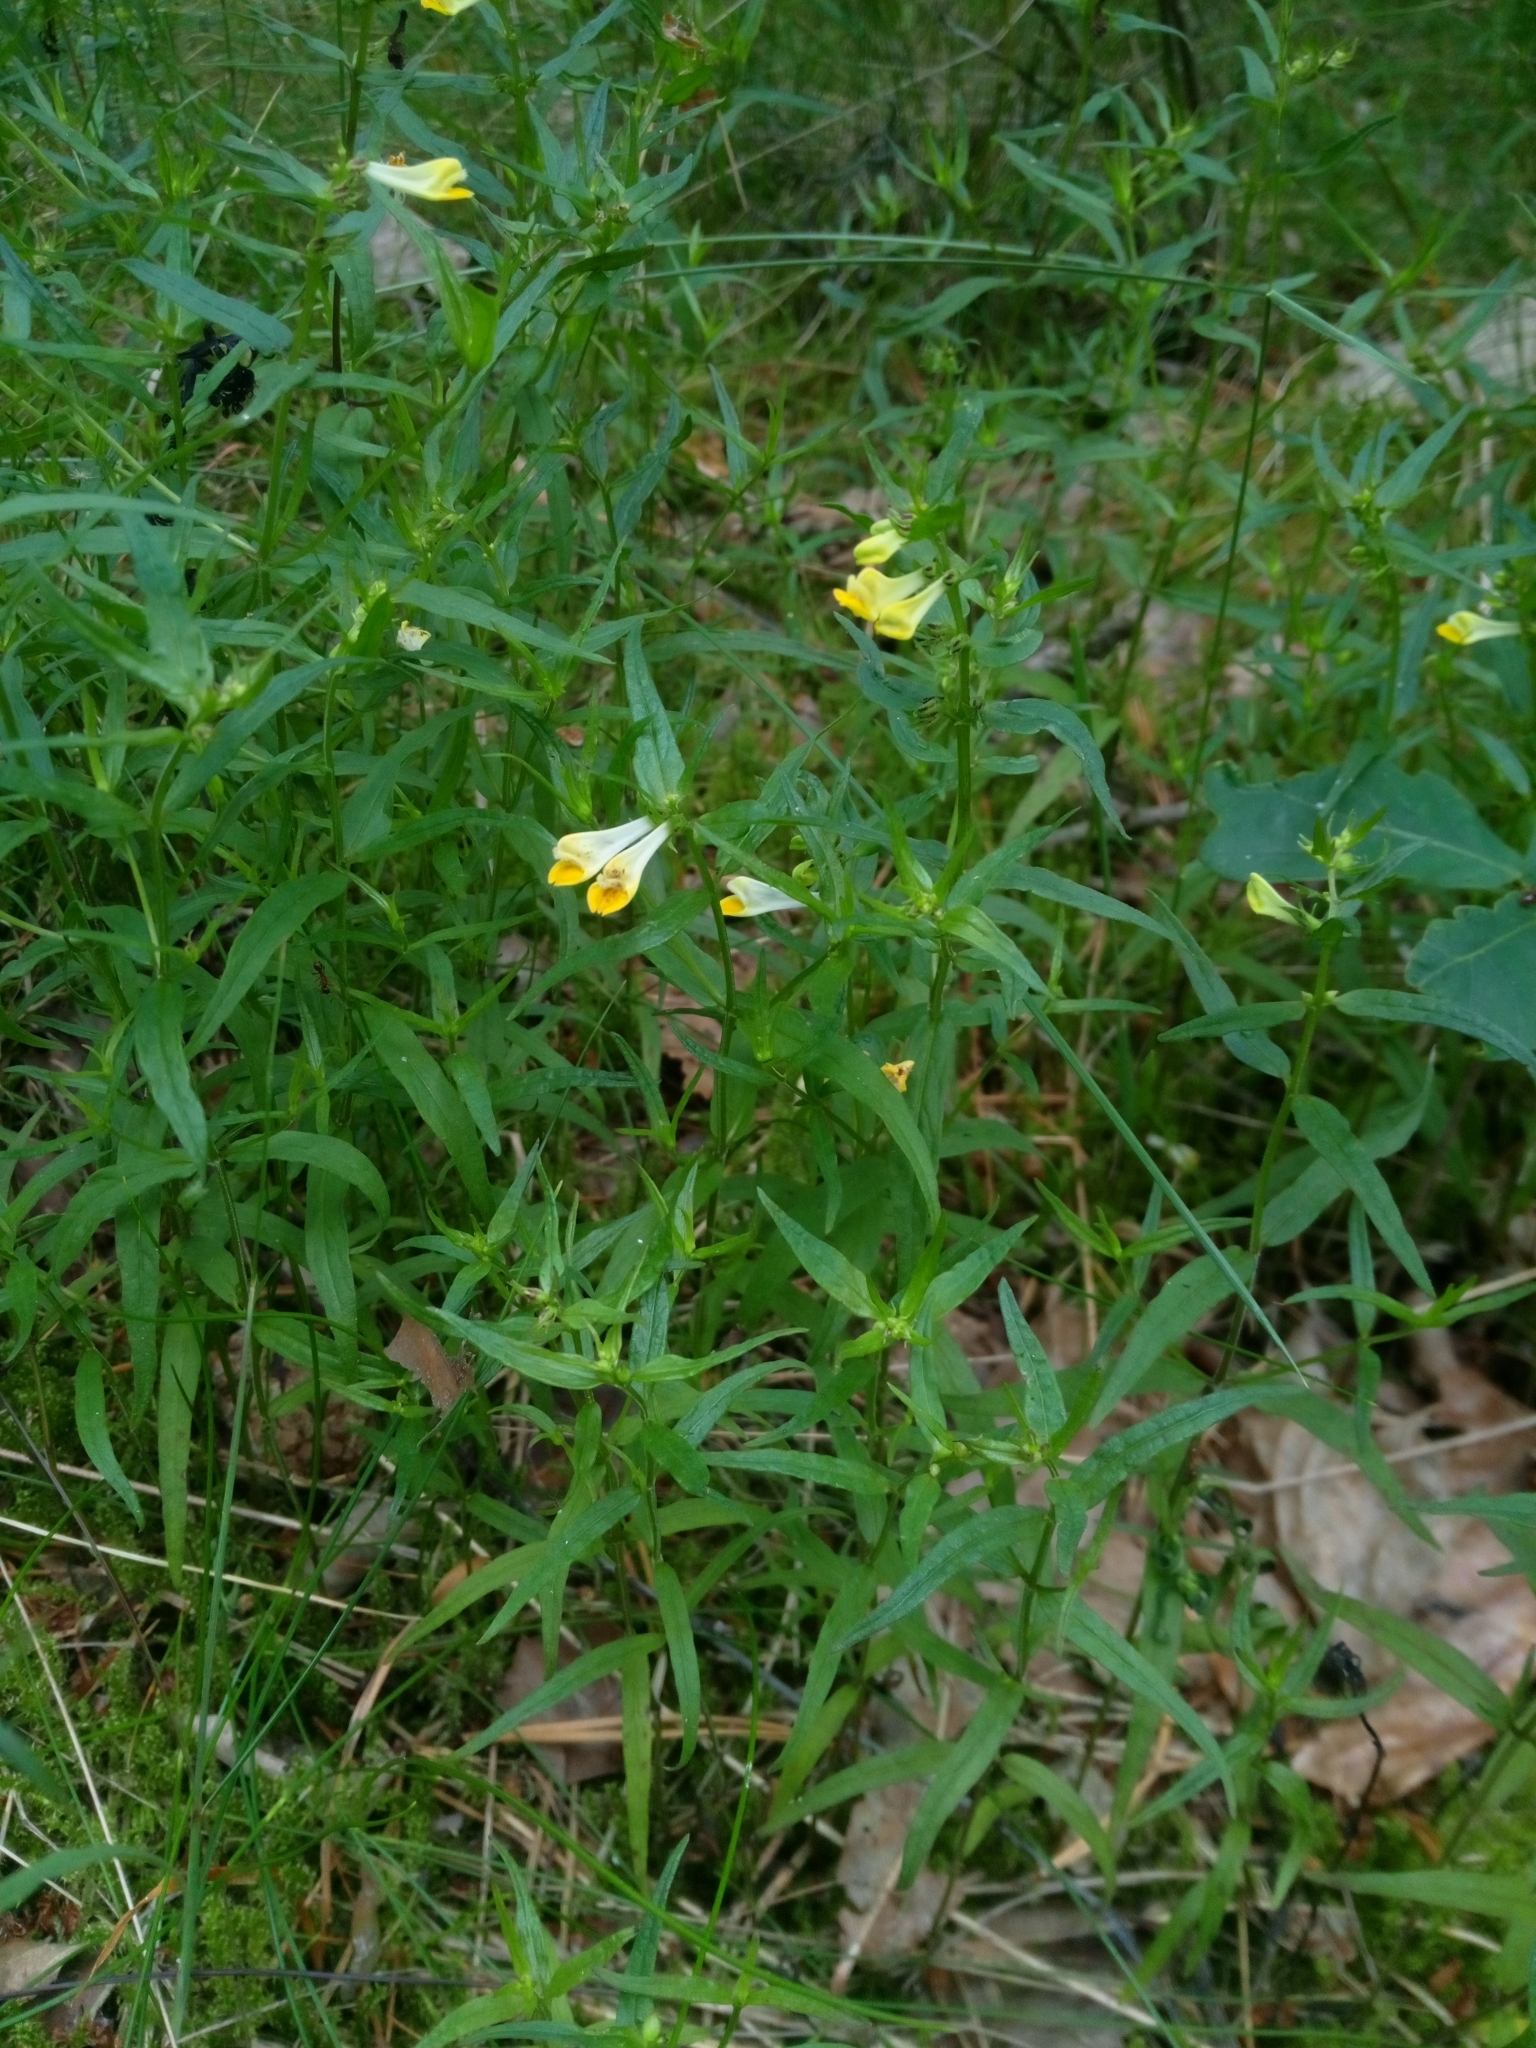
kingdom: Plantae
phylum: Tracheophyta
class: Magnoliopsida
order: Lamiales
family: Orobanchaceae
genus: Melampyrum
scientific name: Melampyrum pratense
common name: Common cow-wheat
